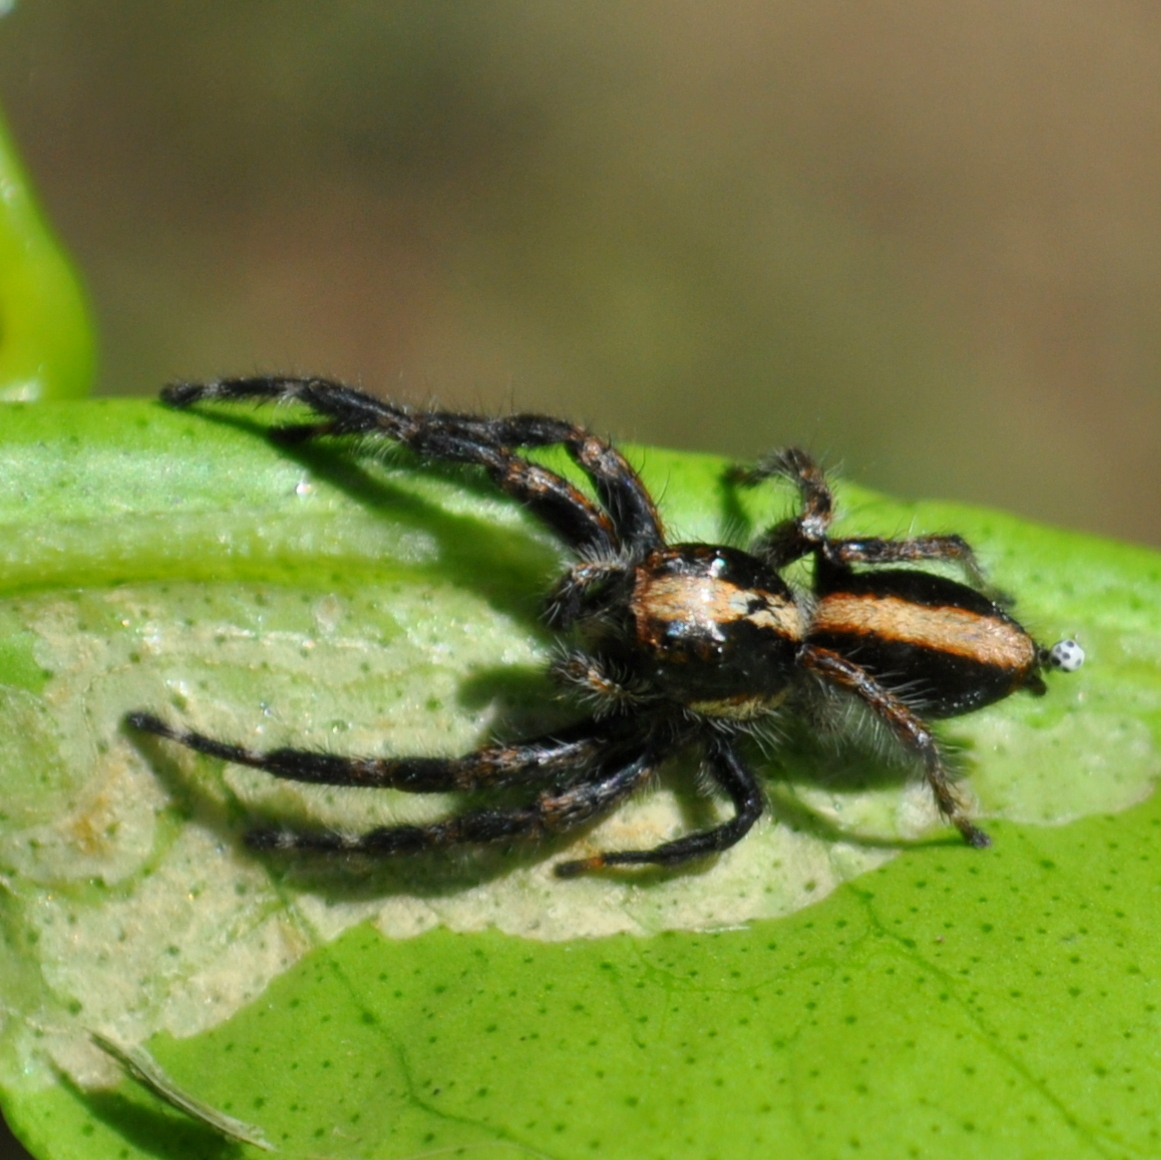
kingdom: Animalia
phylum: Arthropoda
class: Arachnida
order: Araneae
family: Salticidae
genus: Megafreya
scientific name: Megafreya sutrix
